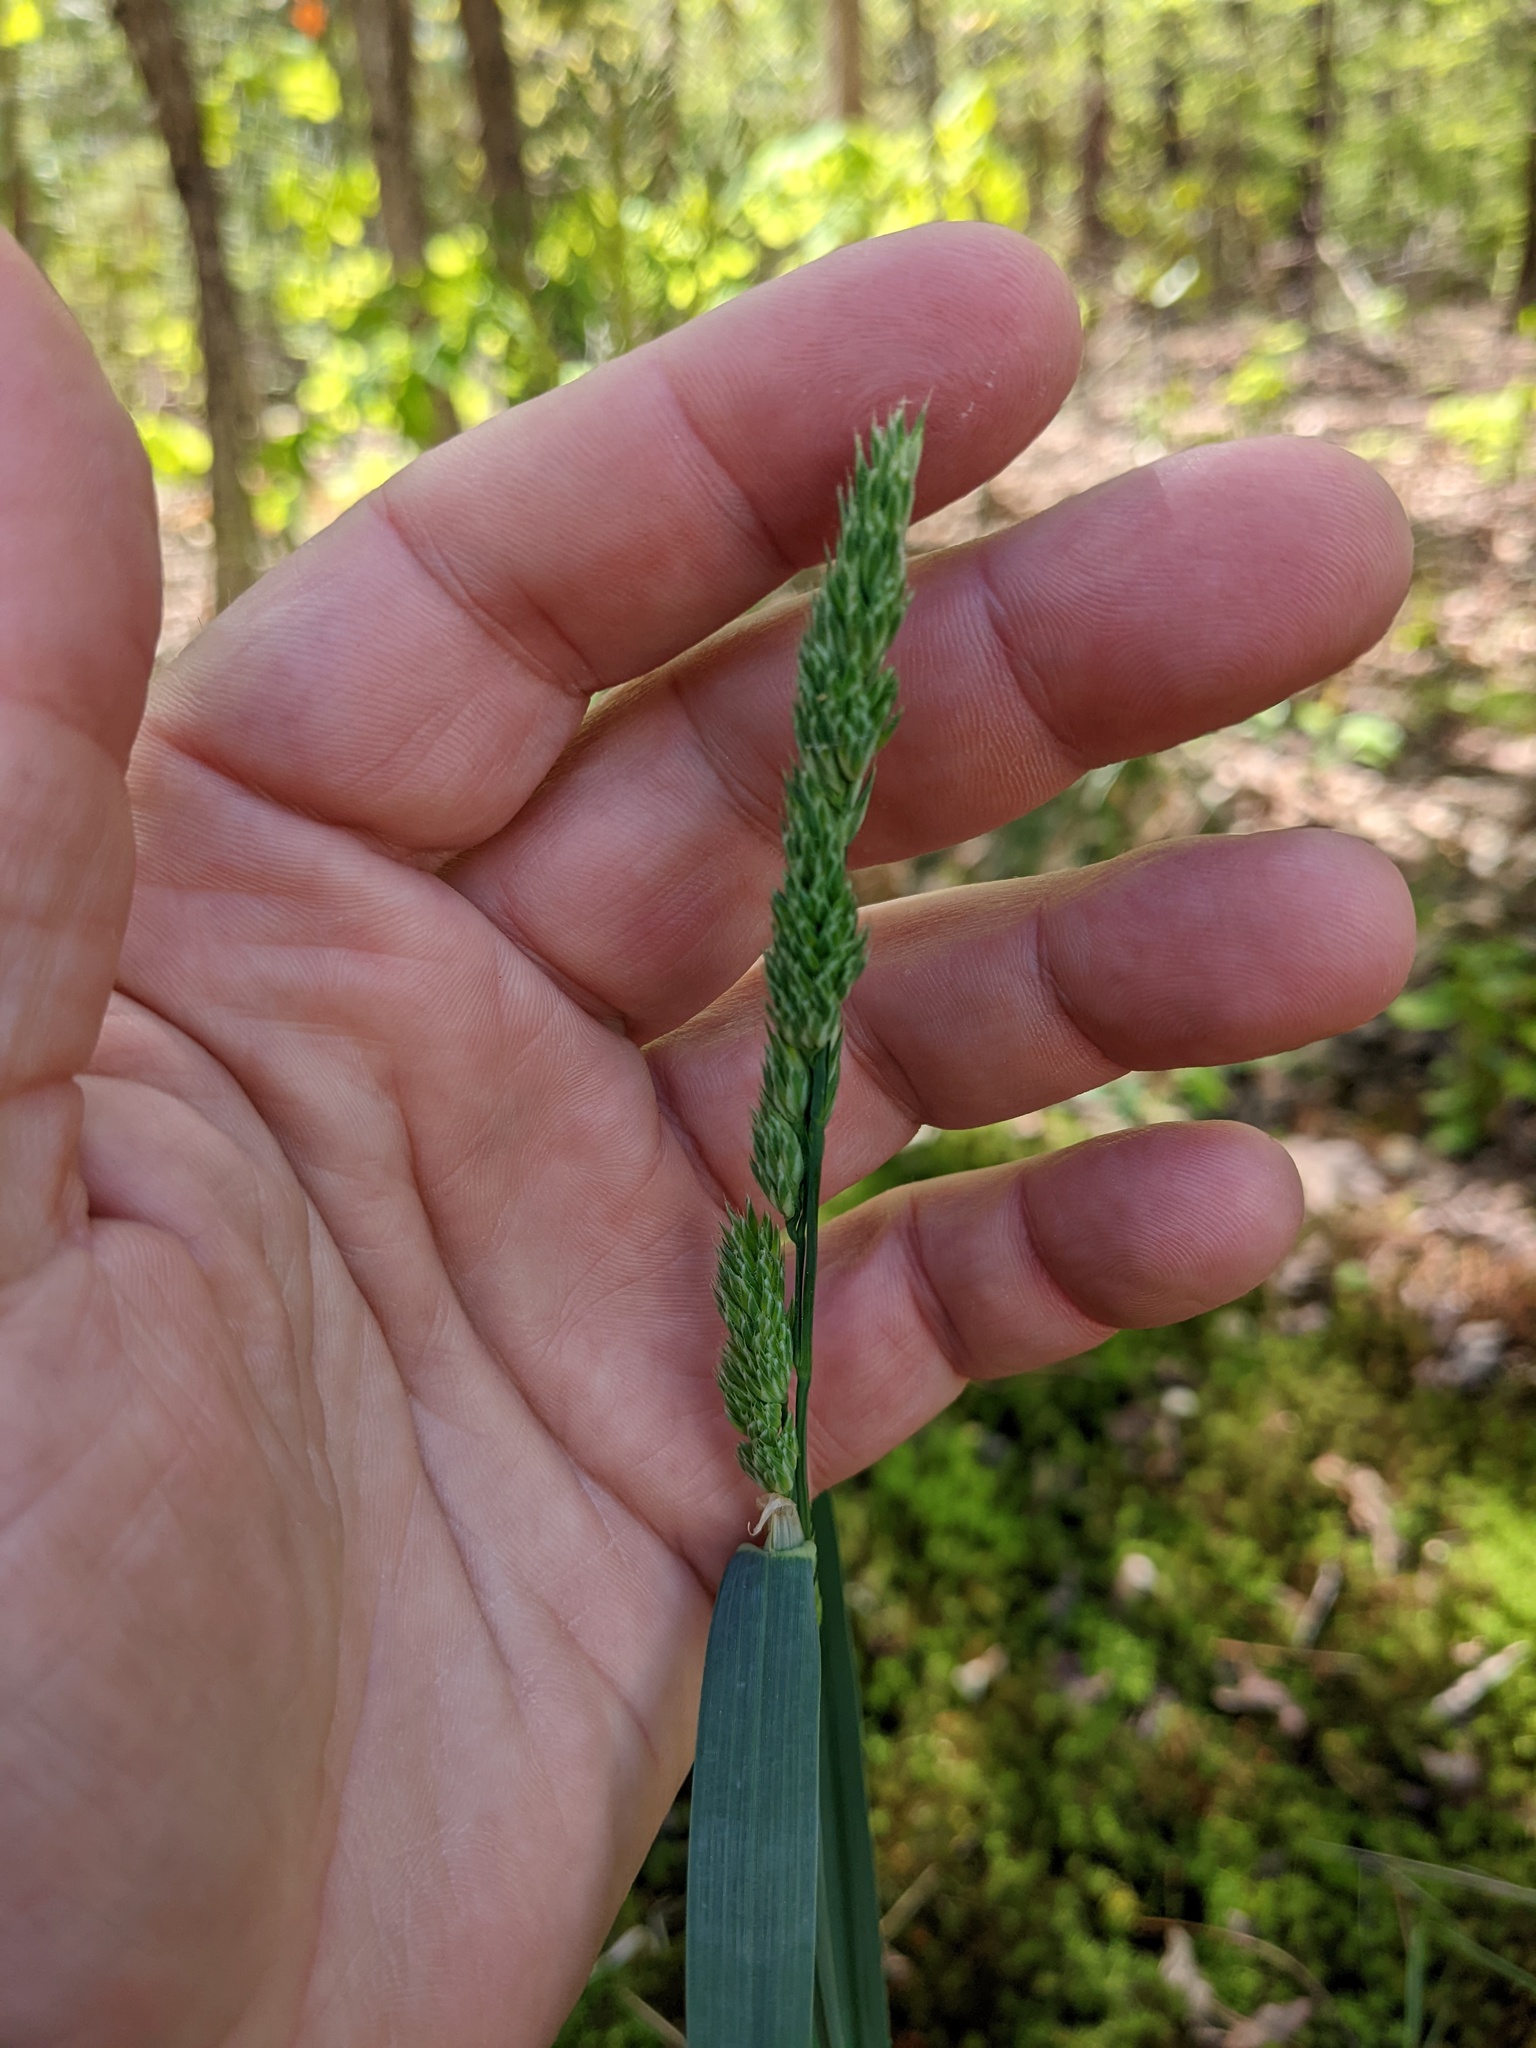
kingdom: Plantae
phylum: Tracheophyta
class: Liliopsida
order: Poales
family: Poaceae
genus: Dactylis
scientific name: Dactylis glomerata
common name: Orchardgrass
